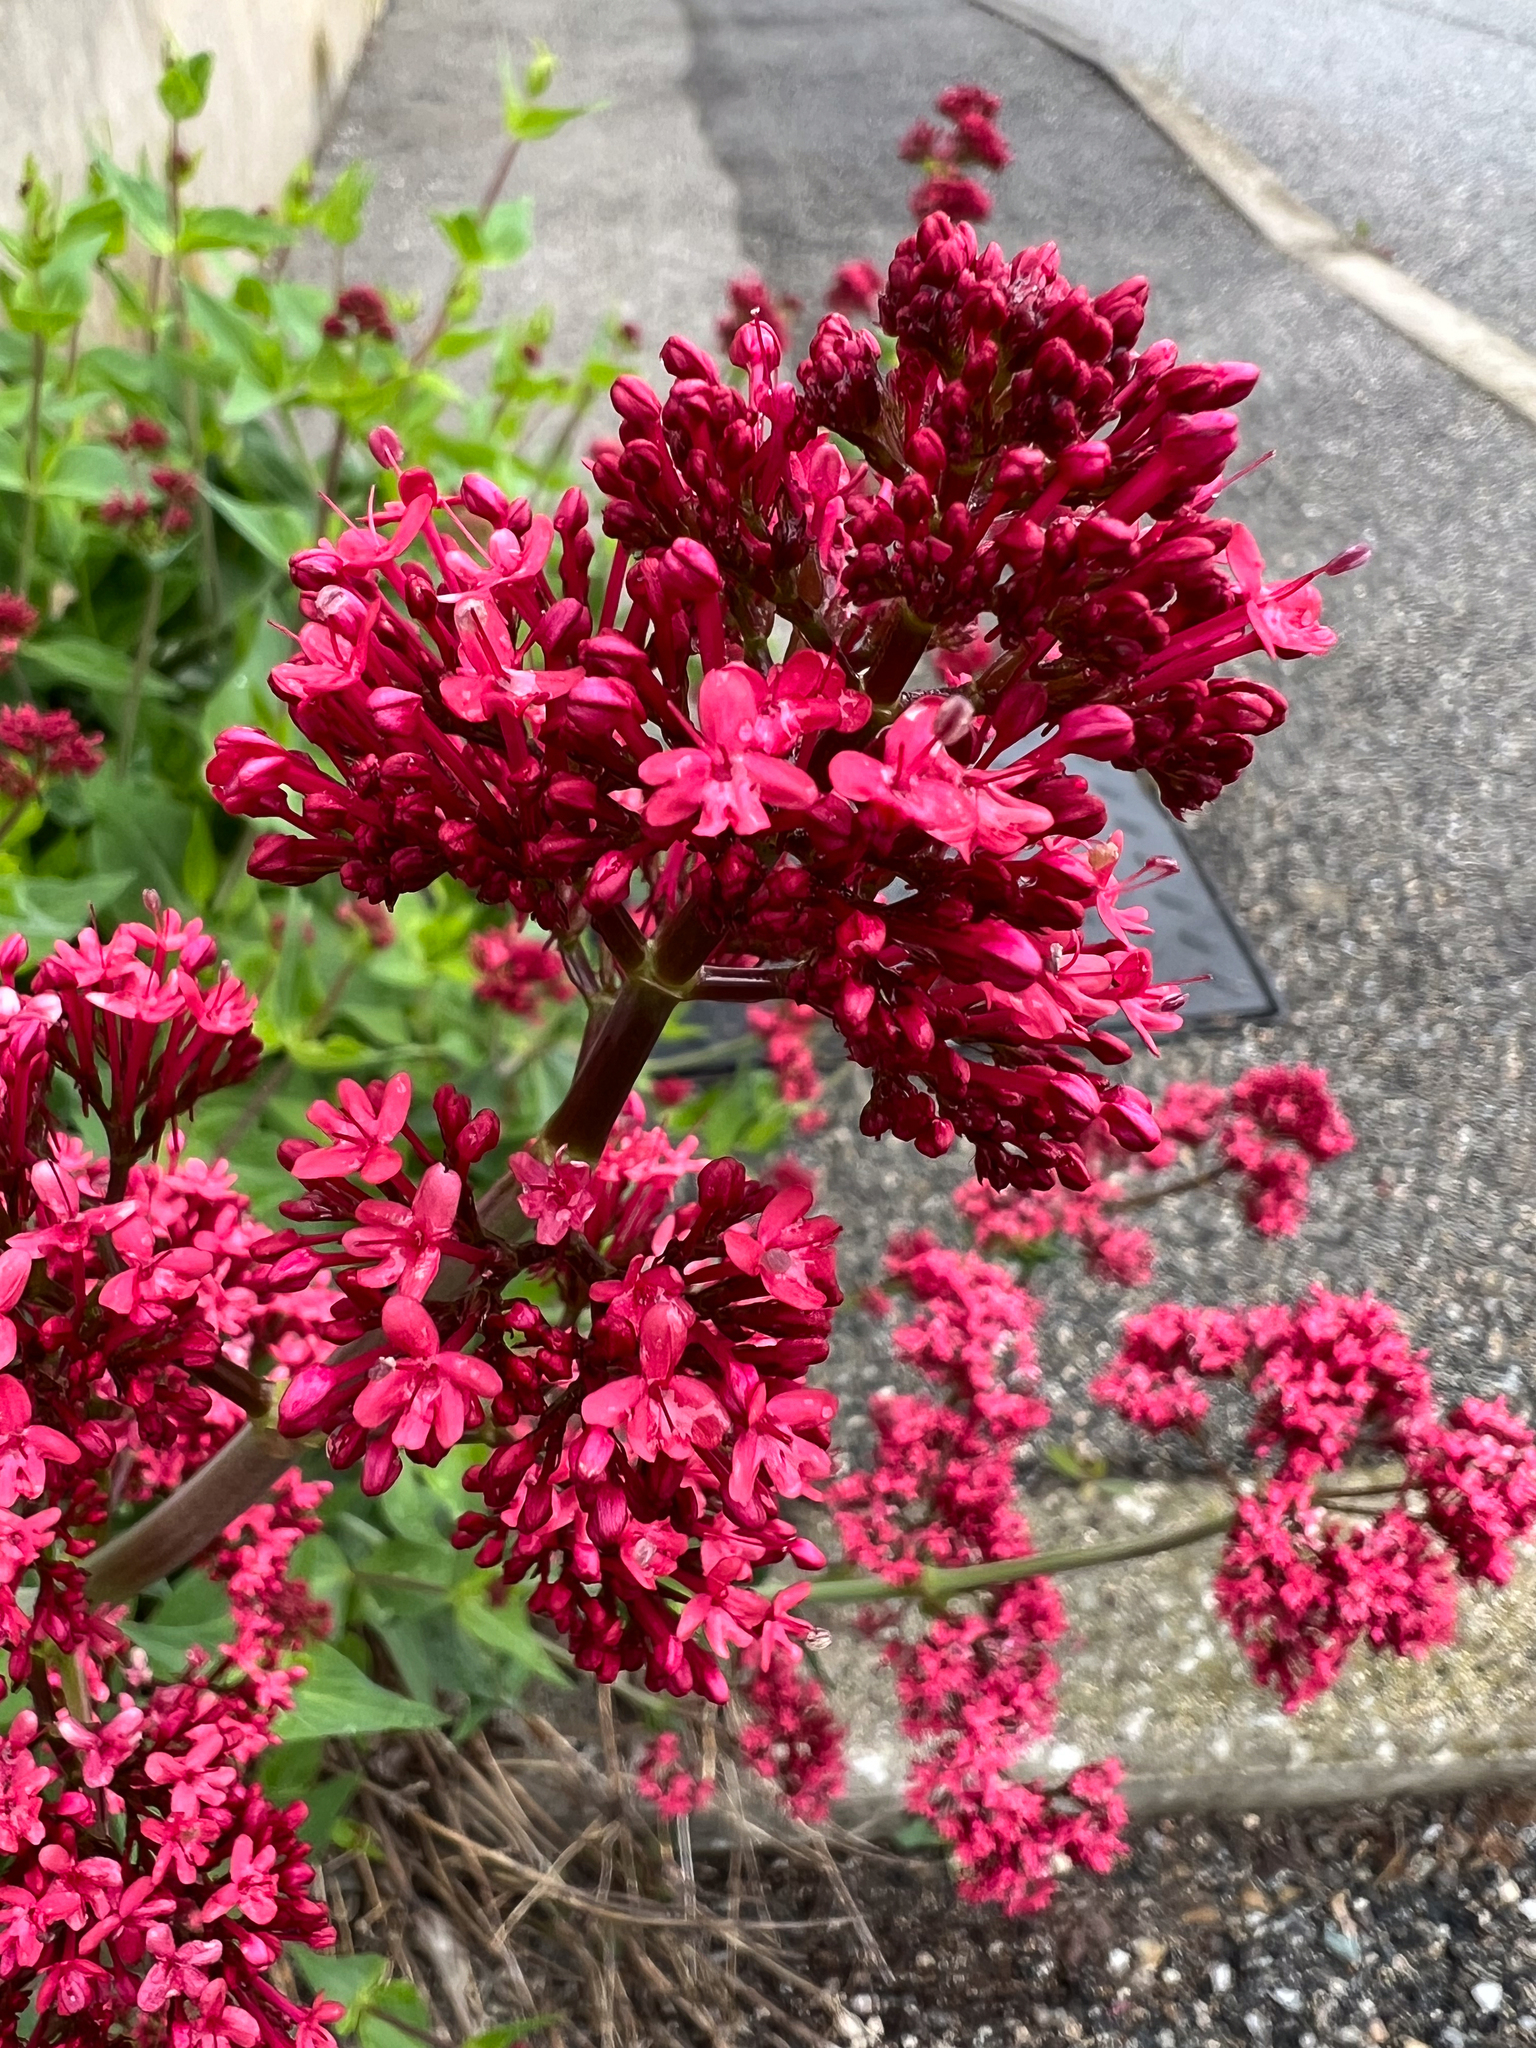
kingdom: Plantae
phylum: Tracheophyta
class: Magnoliopsida
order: Dipsacales
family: Caprifoliaceae
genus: Centranthus
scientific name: Centranthus ruber
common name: Red valerian
